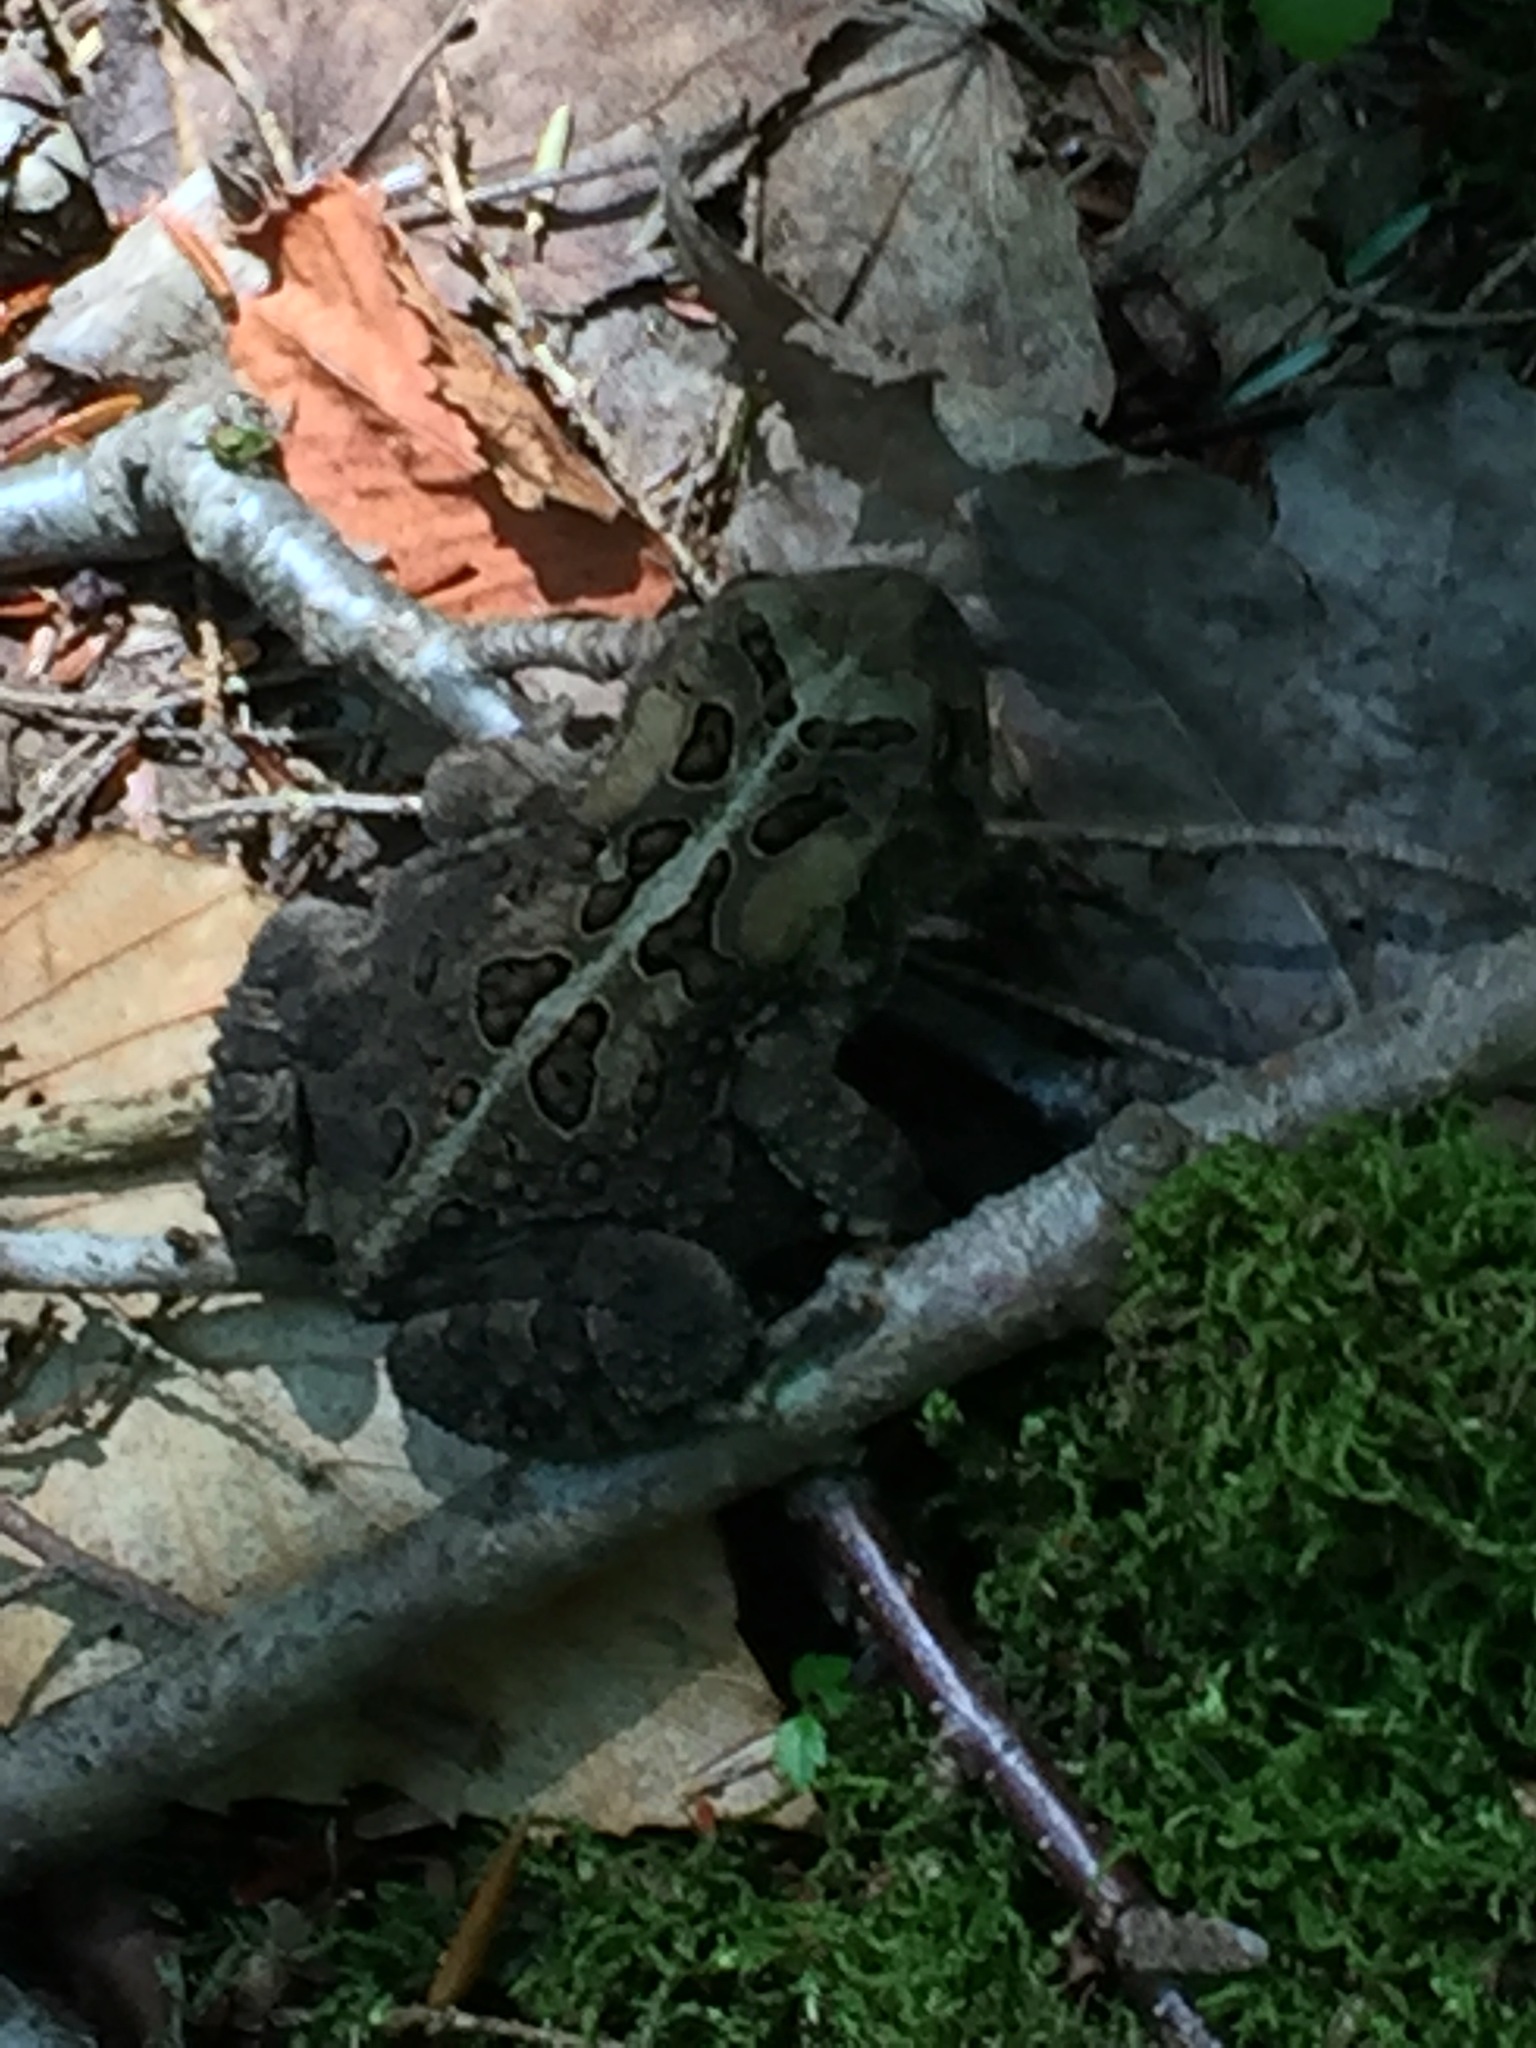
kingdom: Animalia
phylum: Chordata
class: Amphibia
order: Anura
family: Bufonidae
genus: Anaxyrus
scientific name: Anaxyrus americanus
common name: American toad
